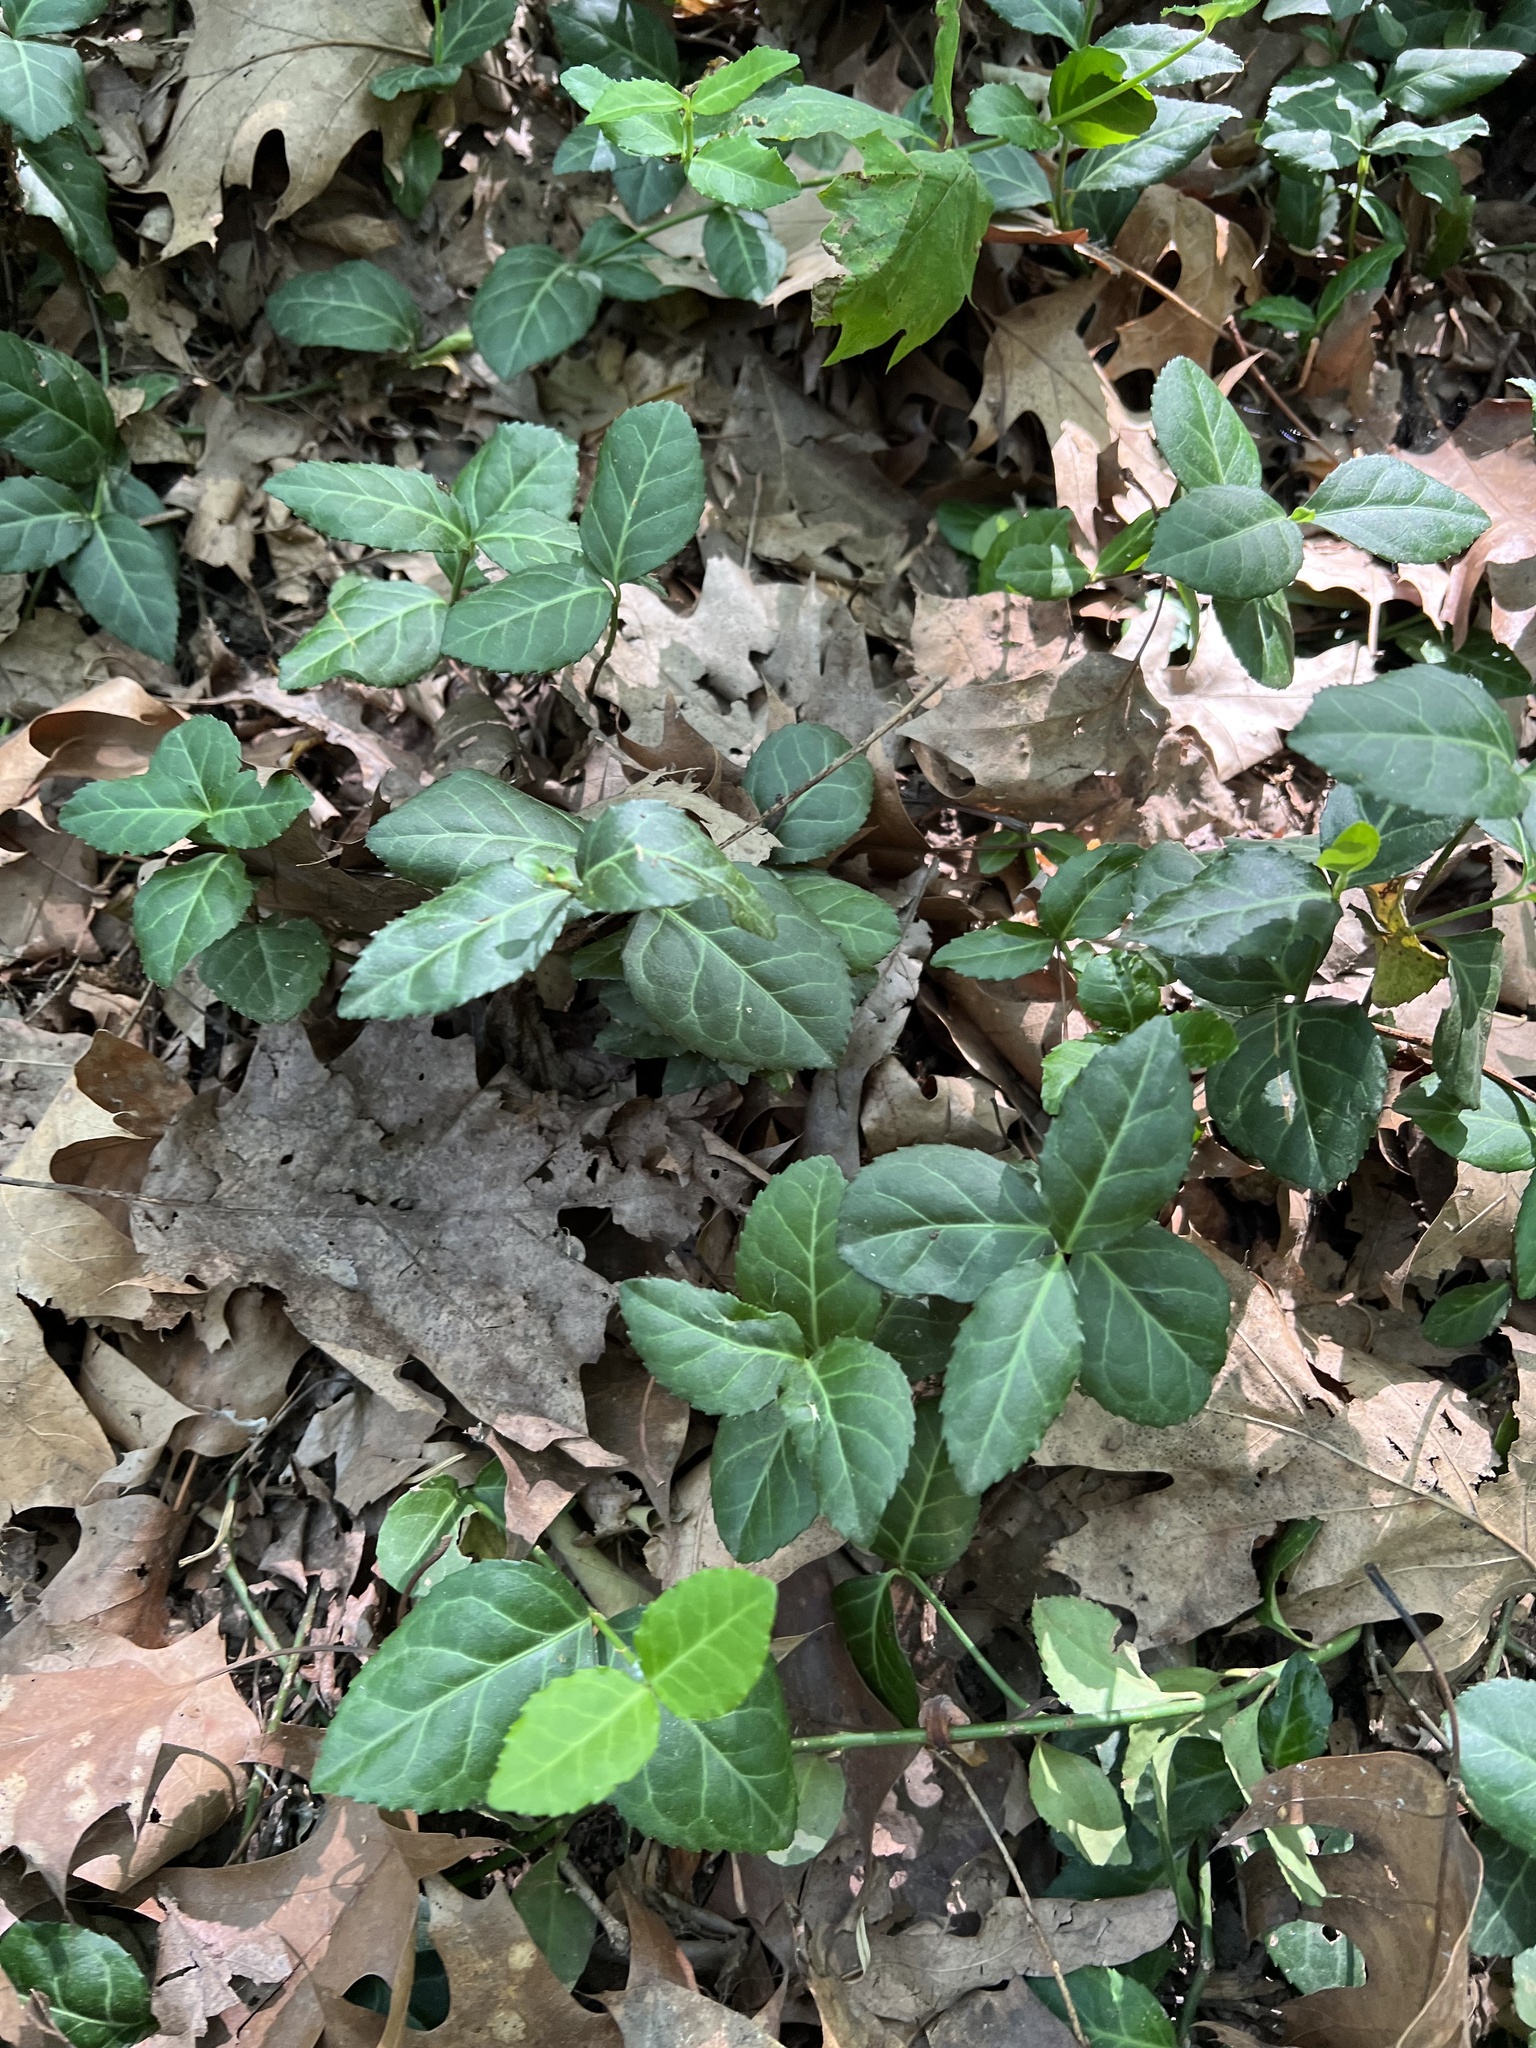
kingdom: Plantae
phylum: Tracheophyta
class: Magnoliopsida
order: Celastrales
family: Celastraceae
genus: Euonymus
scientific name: Euonymus fortunei
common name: Climbing euonymus
